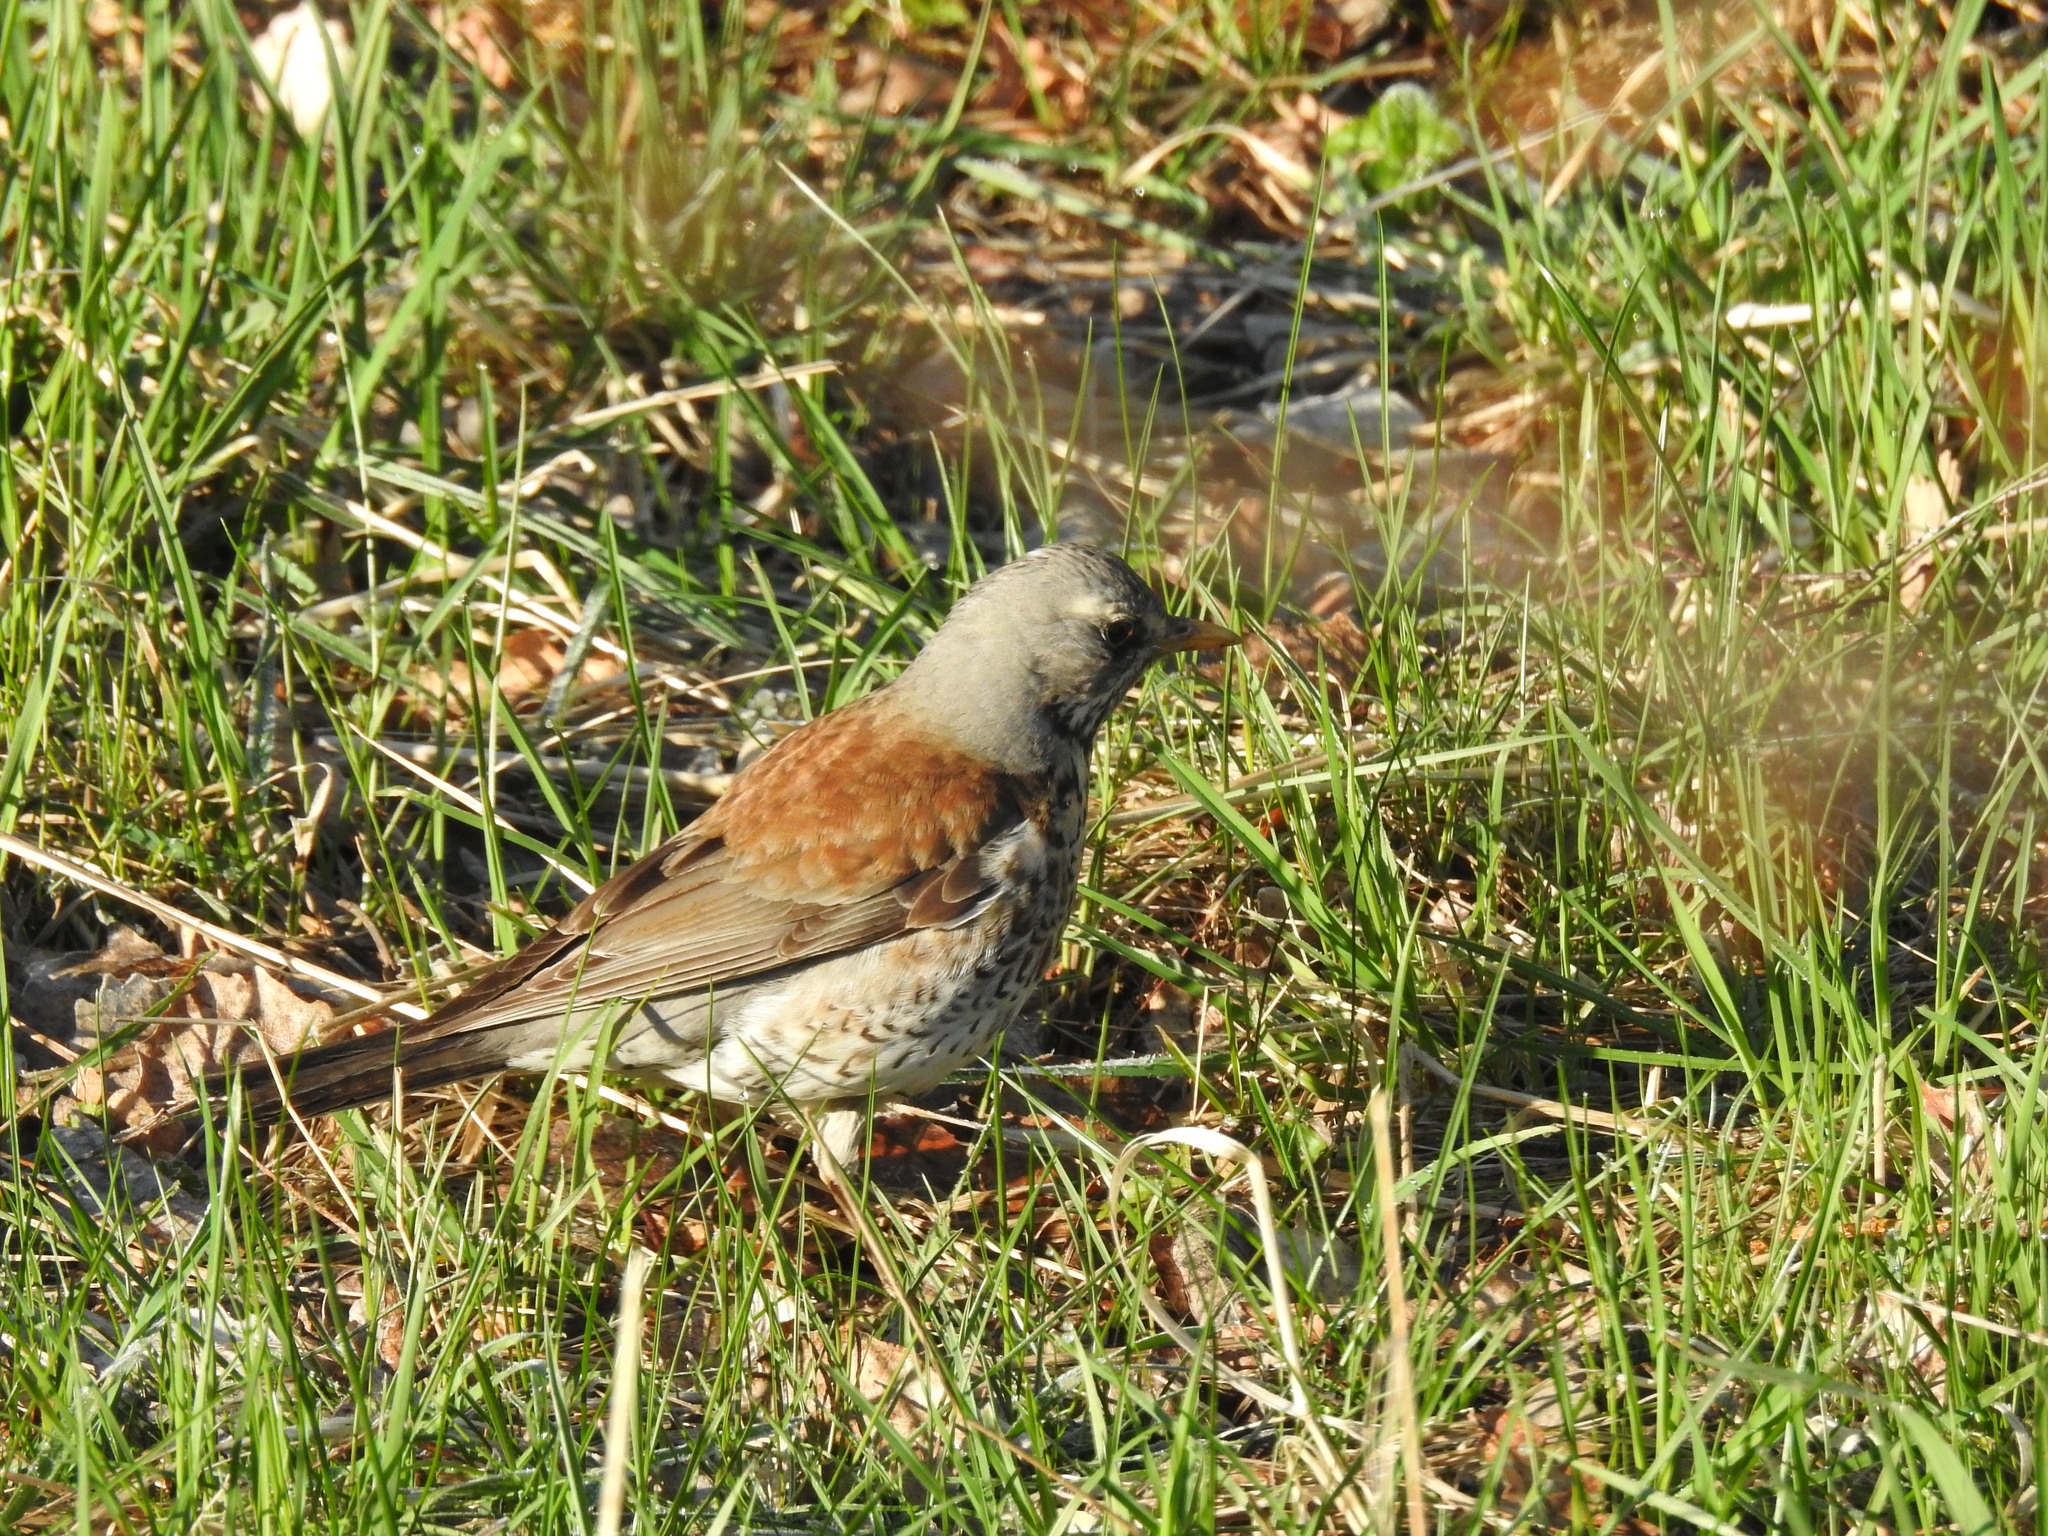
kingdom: Animalia
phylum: Chordata
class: Aves
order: Passeriformes
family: Turdidae
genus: Turdus
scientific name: Turdus pilaris
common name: Fieldfare
